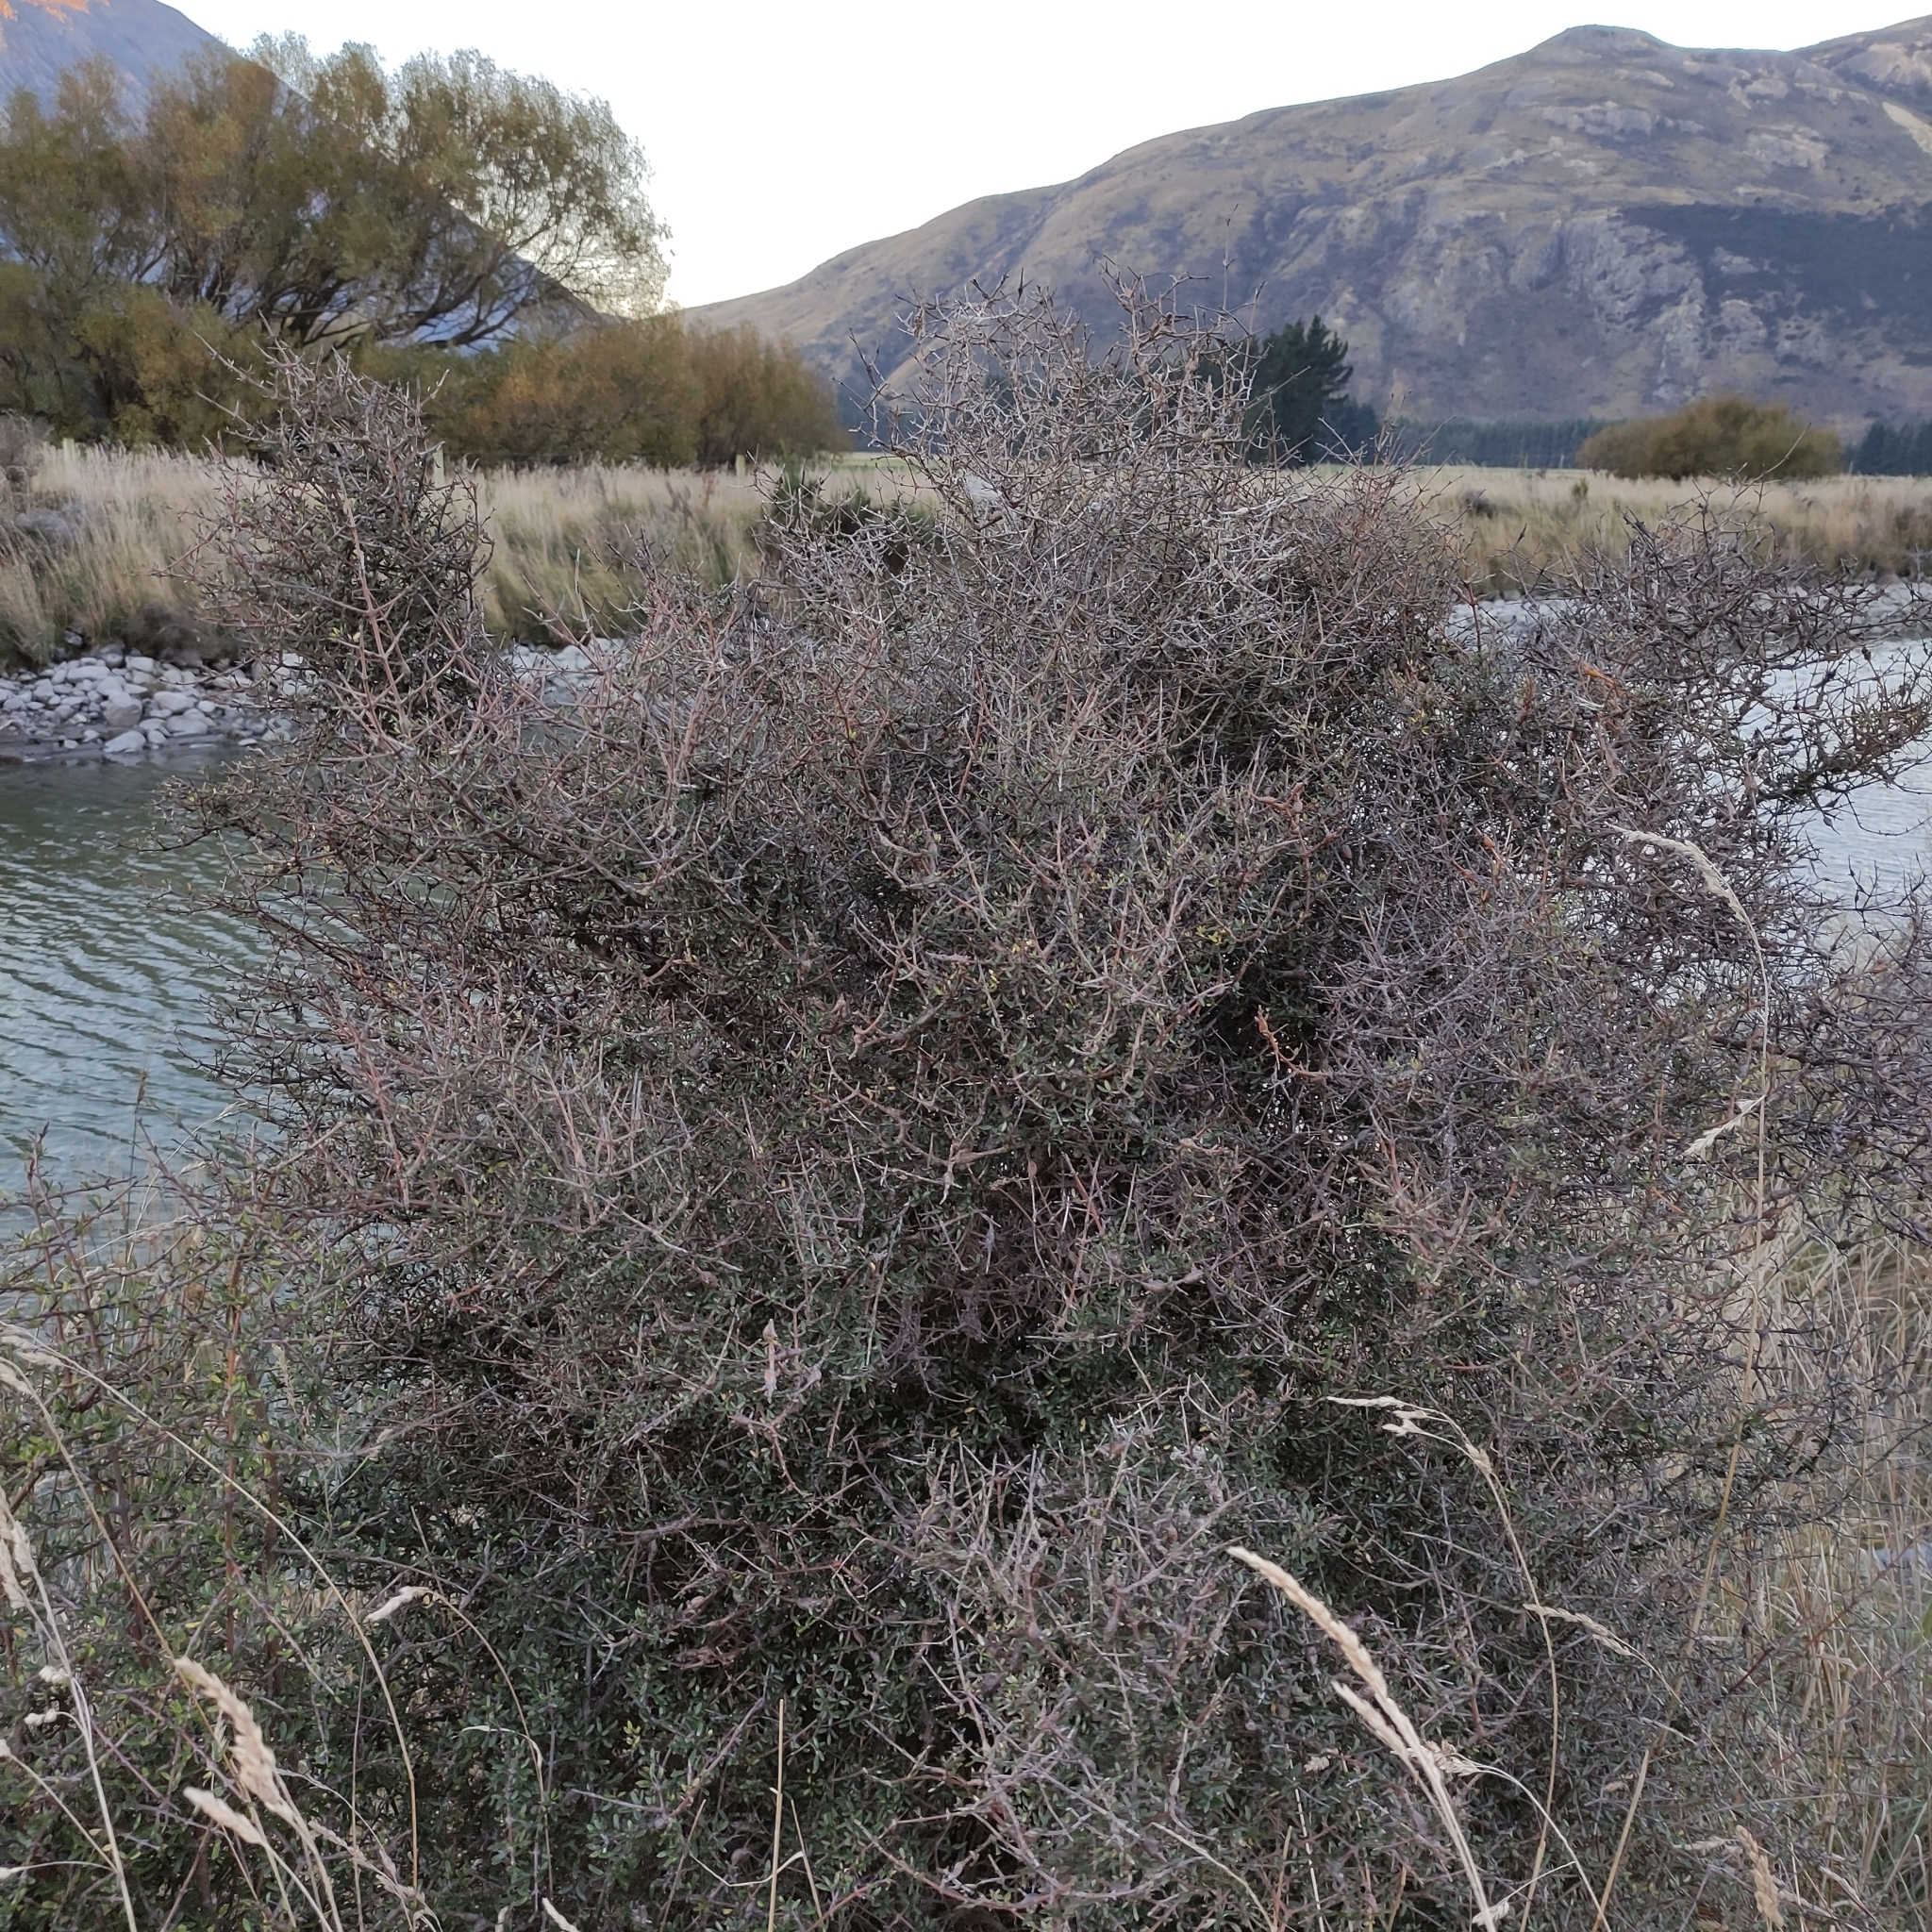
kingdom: Plantae
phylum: Tracheophyta
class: Magnoliopsida
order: Gentianales
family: Rubiaceae
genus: Coprosma
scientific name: Coprosma propinqua
